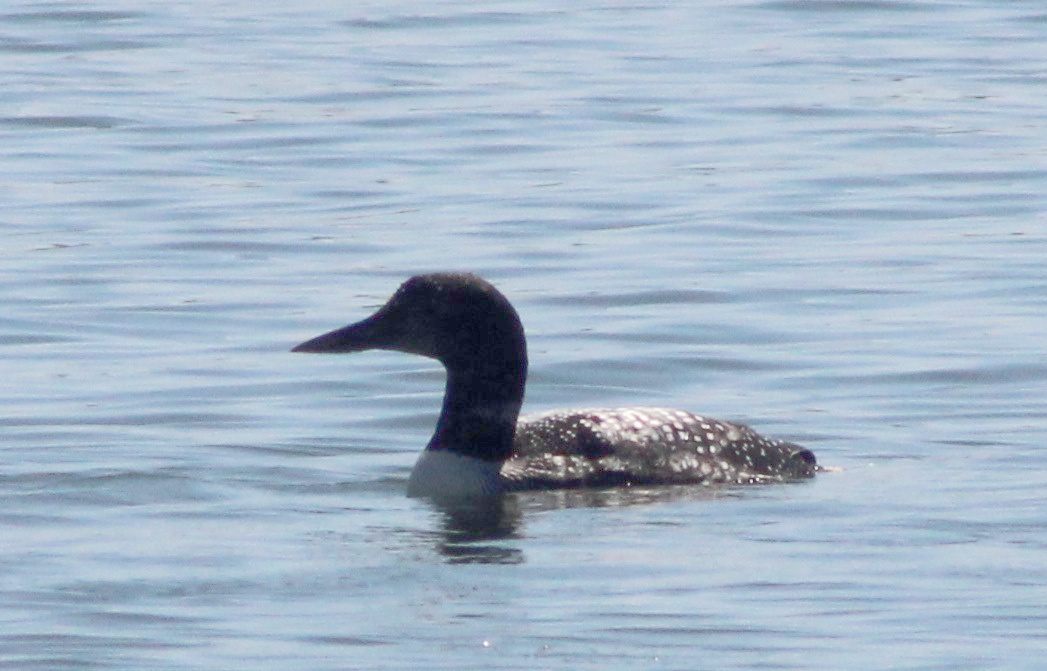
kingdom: Animalia
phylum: Chordata
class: Aves
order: Gaviiformes
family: Gaviidae
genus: Gavia
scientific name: Gavia immer
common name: Common loon
